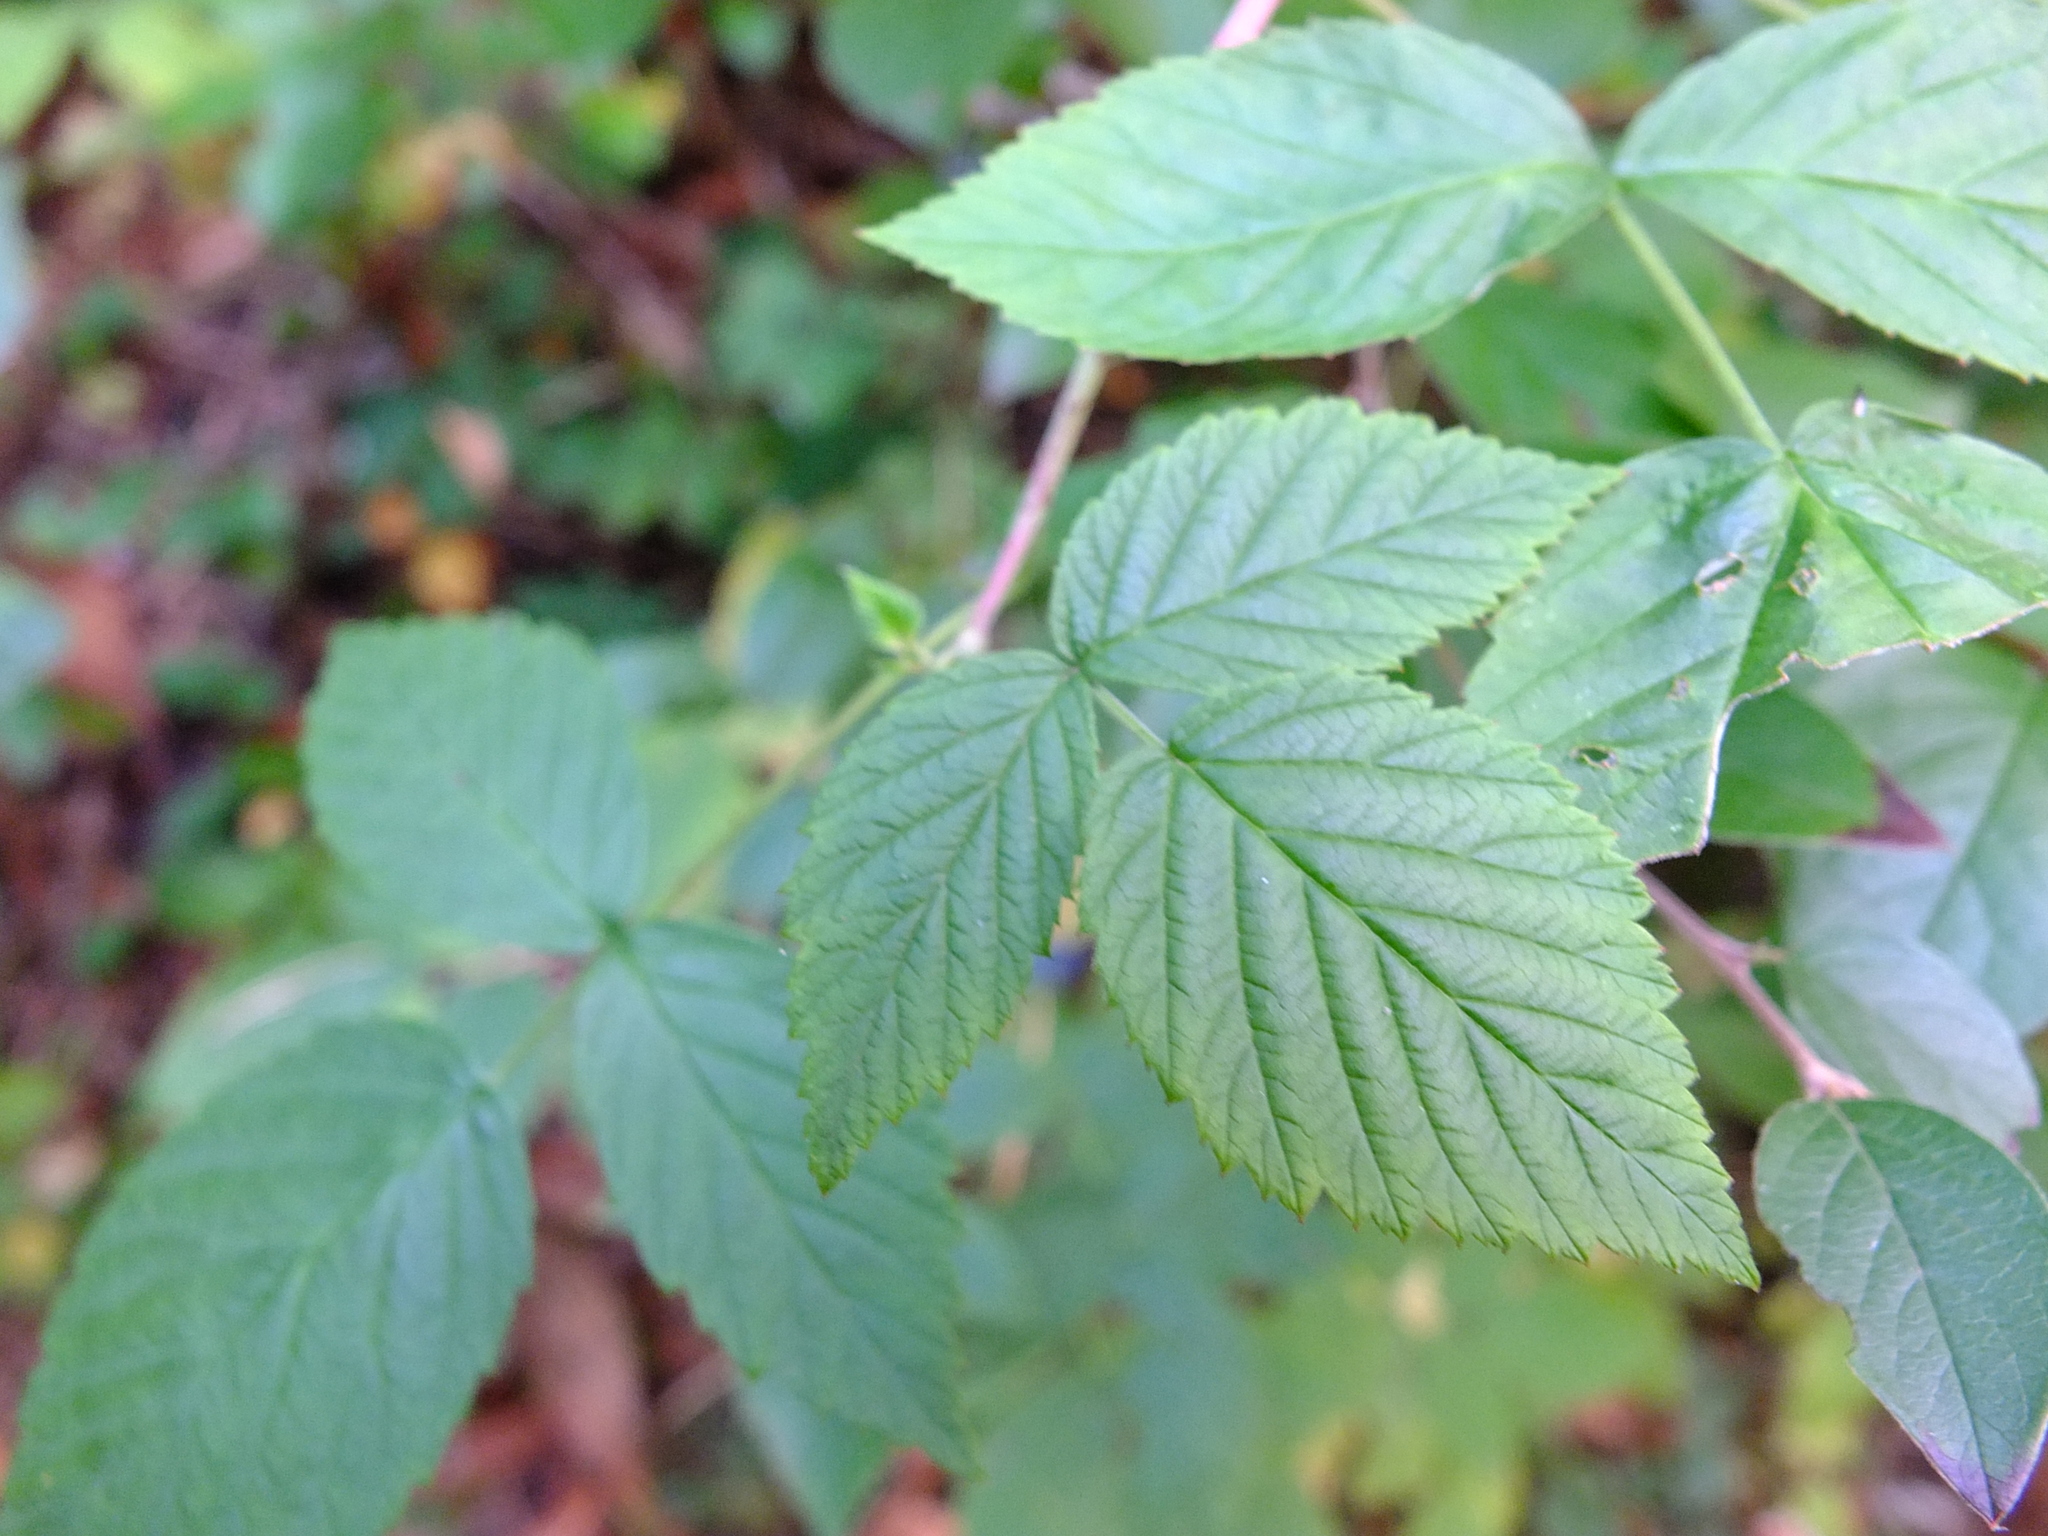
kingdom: Plantae
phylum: Tracheophyta
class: Magnoliopsida
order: Rosales
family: Rosaceae
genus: Rubus
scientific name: Rubus idaeus
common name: Raspberry
